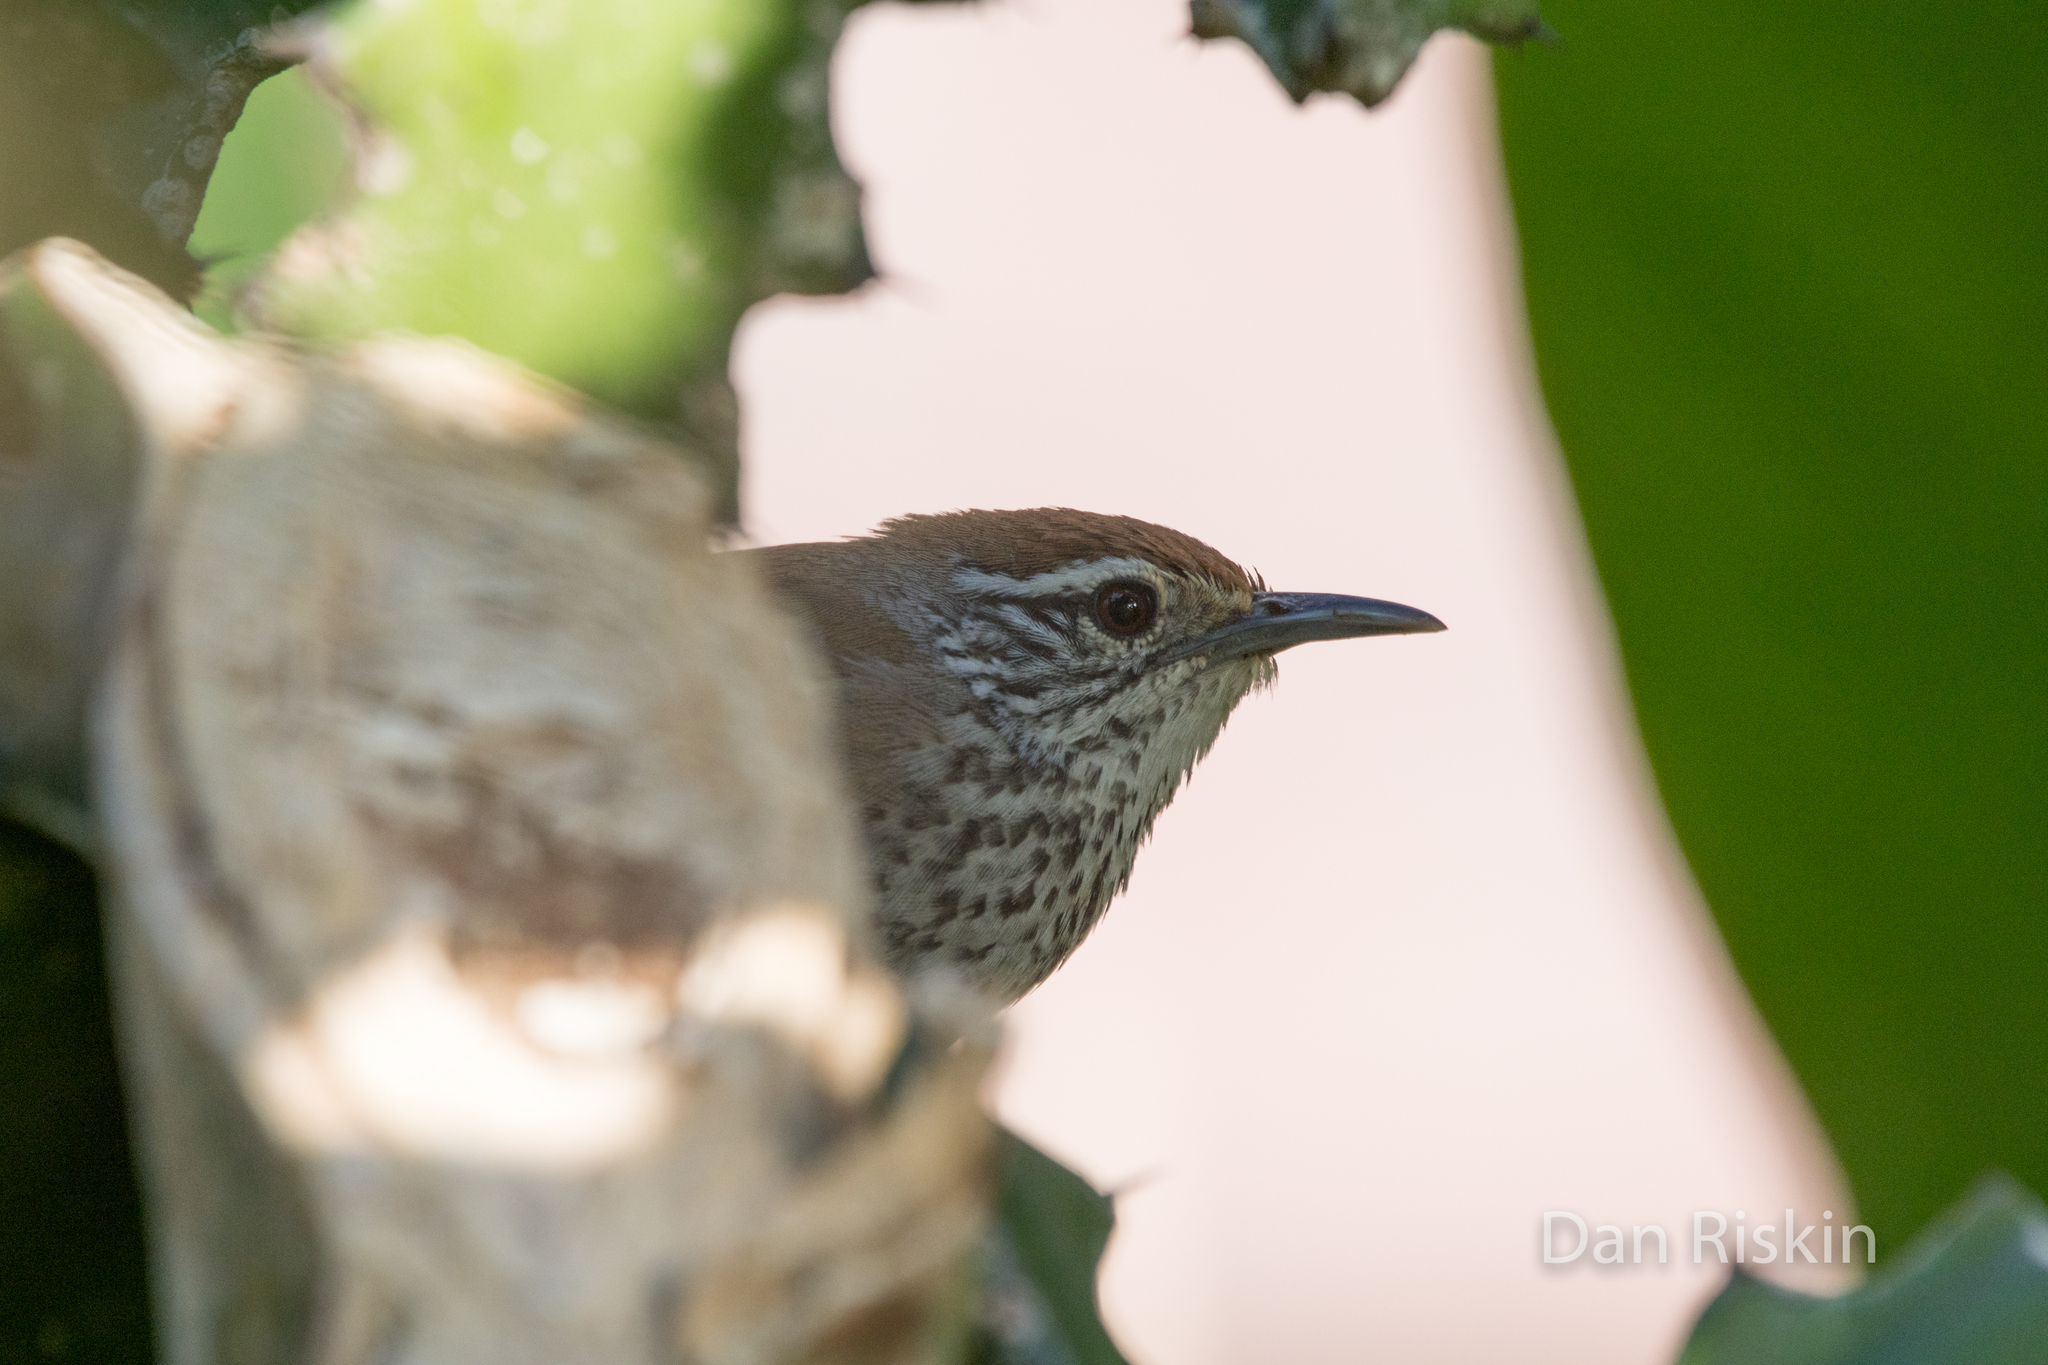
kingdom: Animalia
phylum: Chordata
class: Aves
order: Passeriformes
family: Troglodytidae
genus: Pheugopedius
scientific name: Pheugopedius maculipectus
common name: Spot-breasted wren
